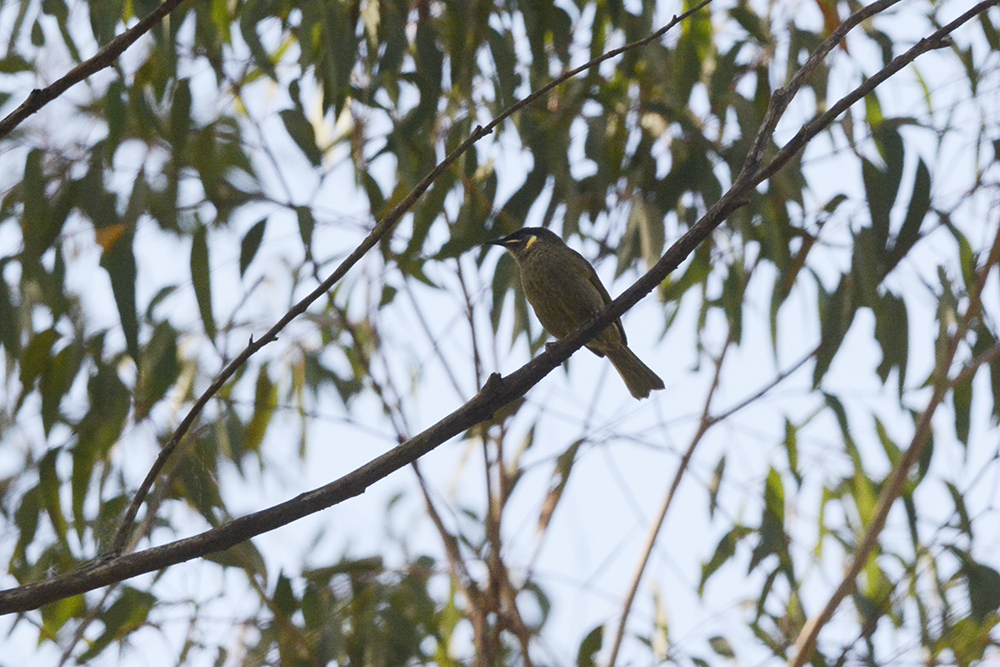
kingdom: Animalia
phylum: Chordata
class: Aves
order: Passeriformes
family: Meliphagidae
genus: Meliphaga
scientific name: Meliphaga lewinii
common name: Lewin's honeyeater
